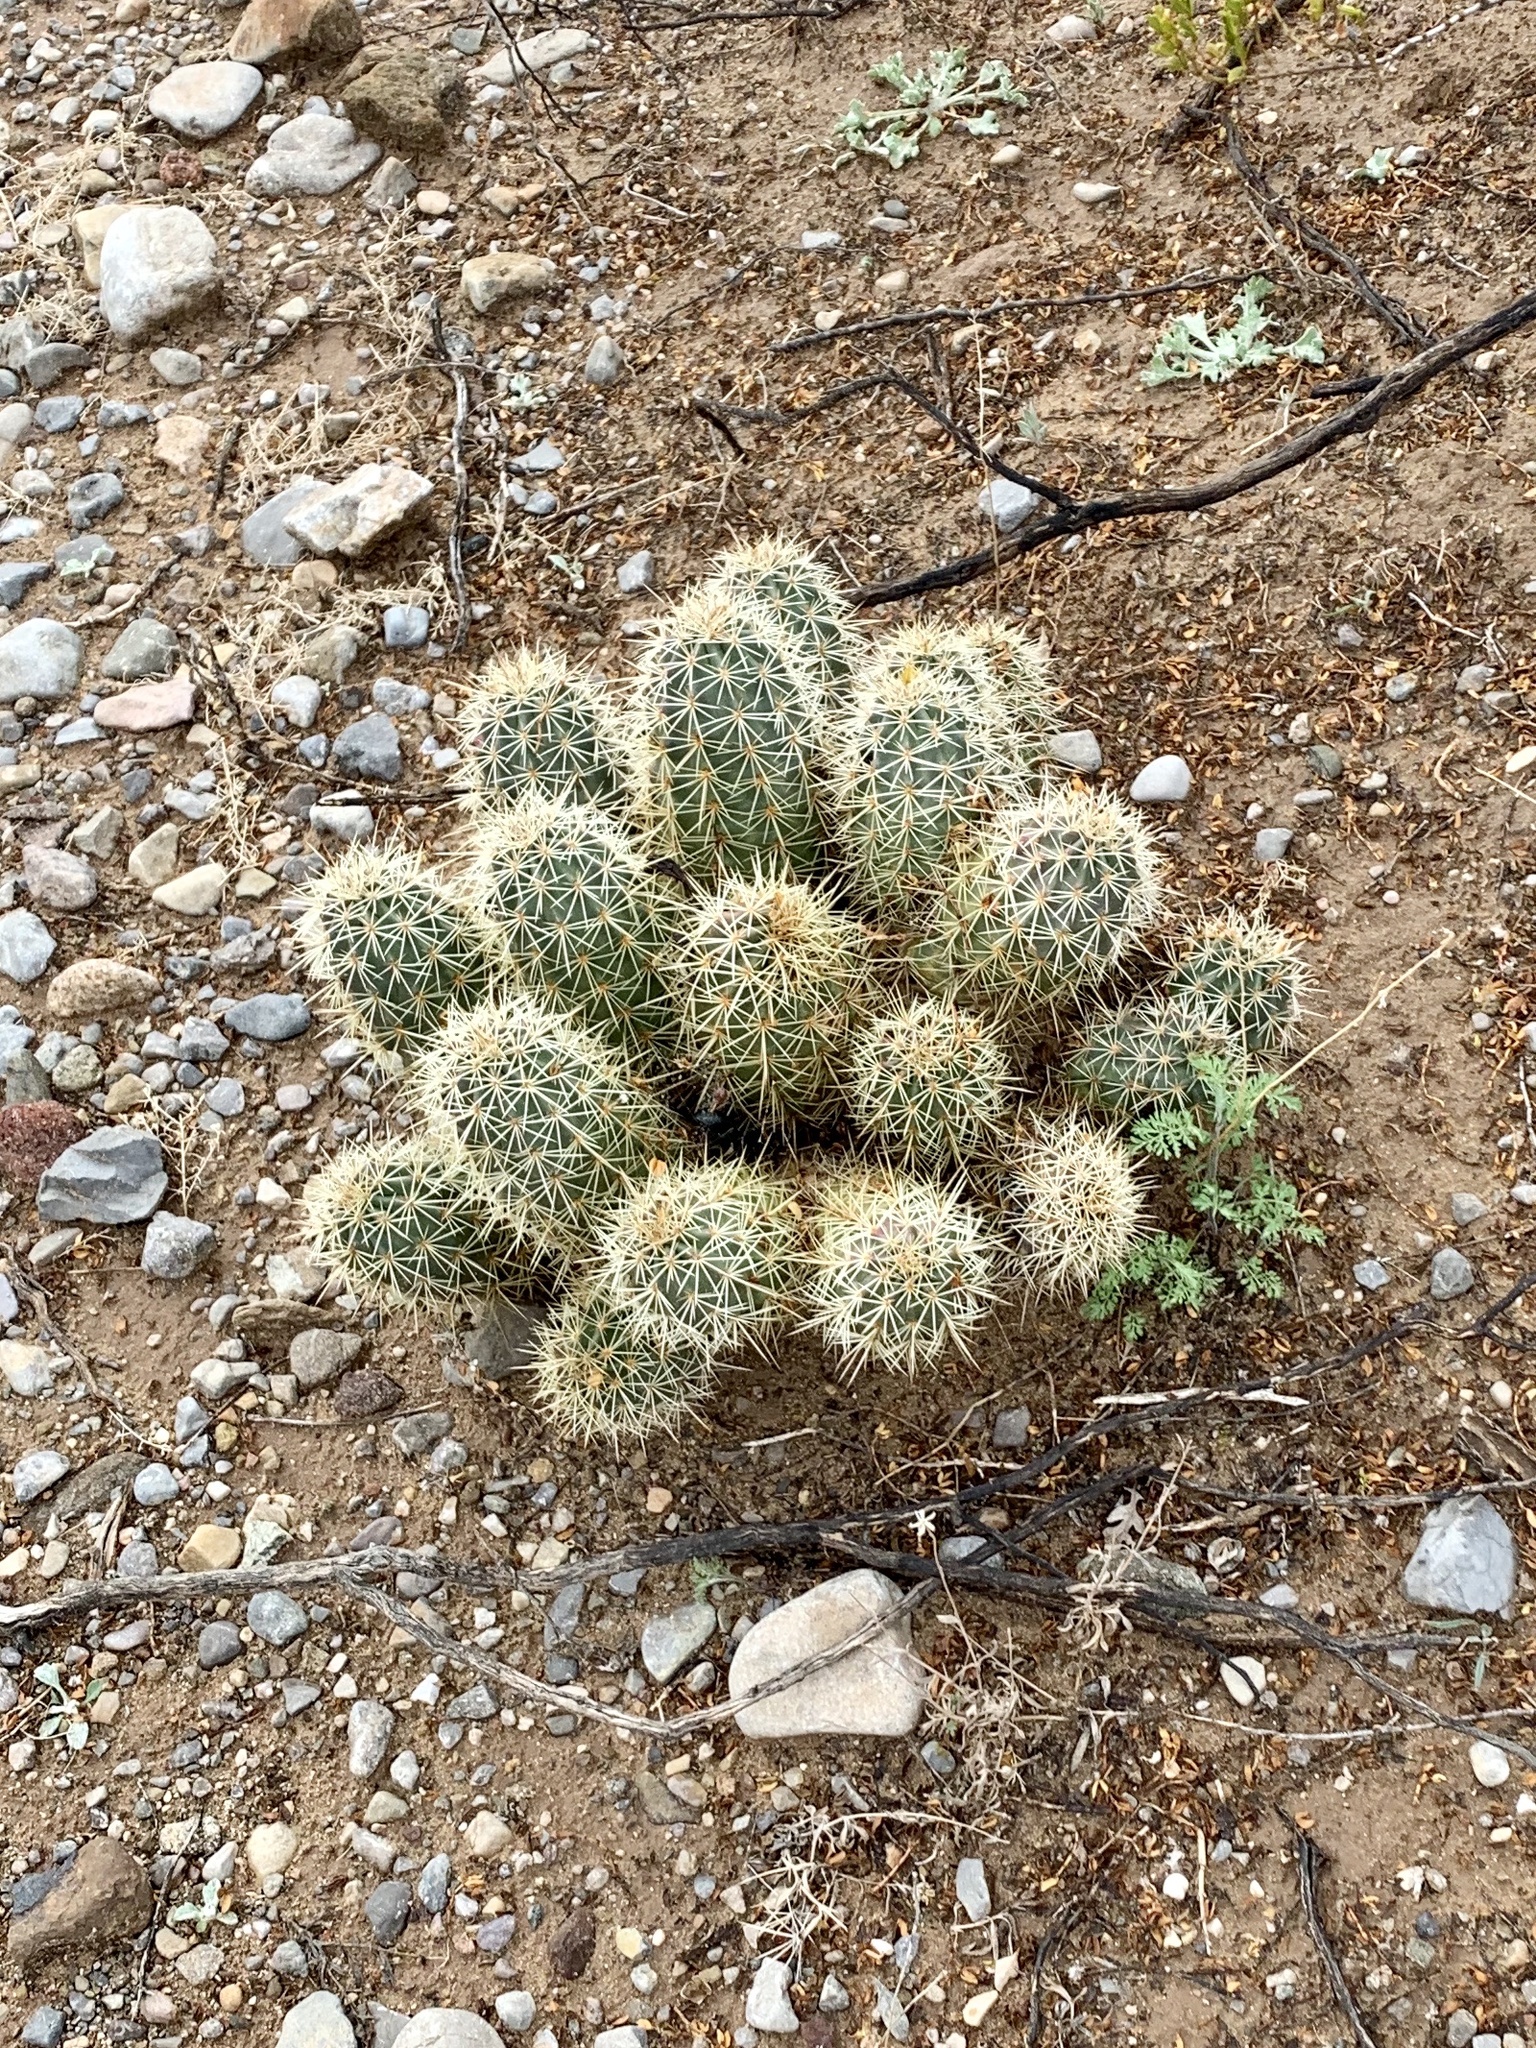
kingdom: Plantae
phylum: Tracheophyta
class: Magnoliopsida
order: Caryophyllales
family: Cactaceae
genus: Echinocereus
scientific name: Echinocereus coccineus
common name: Scarlet hedgehog cactus
